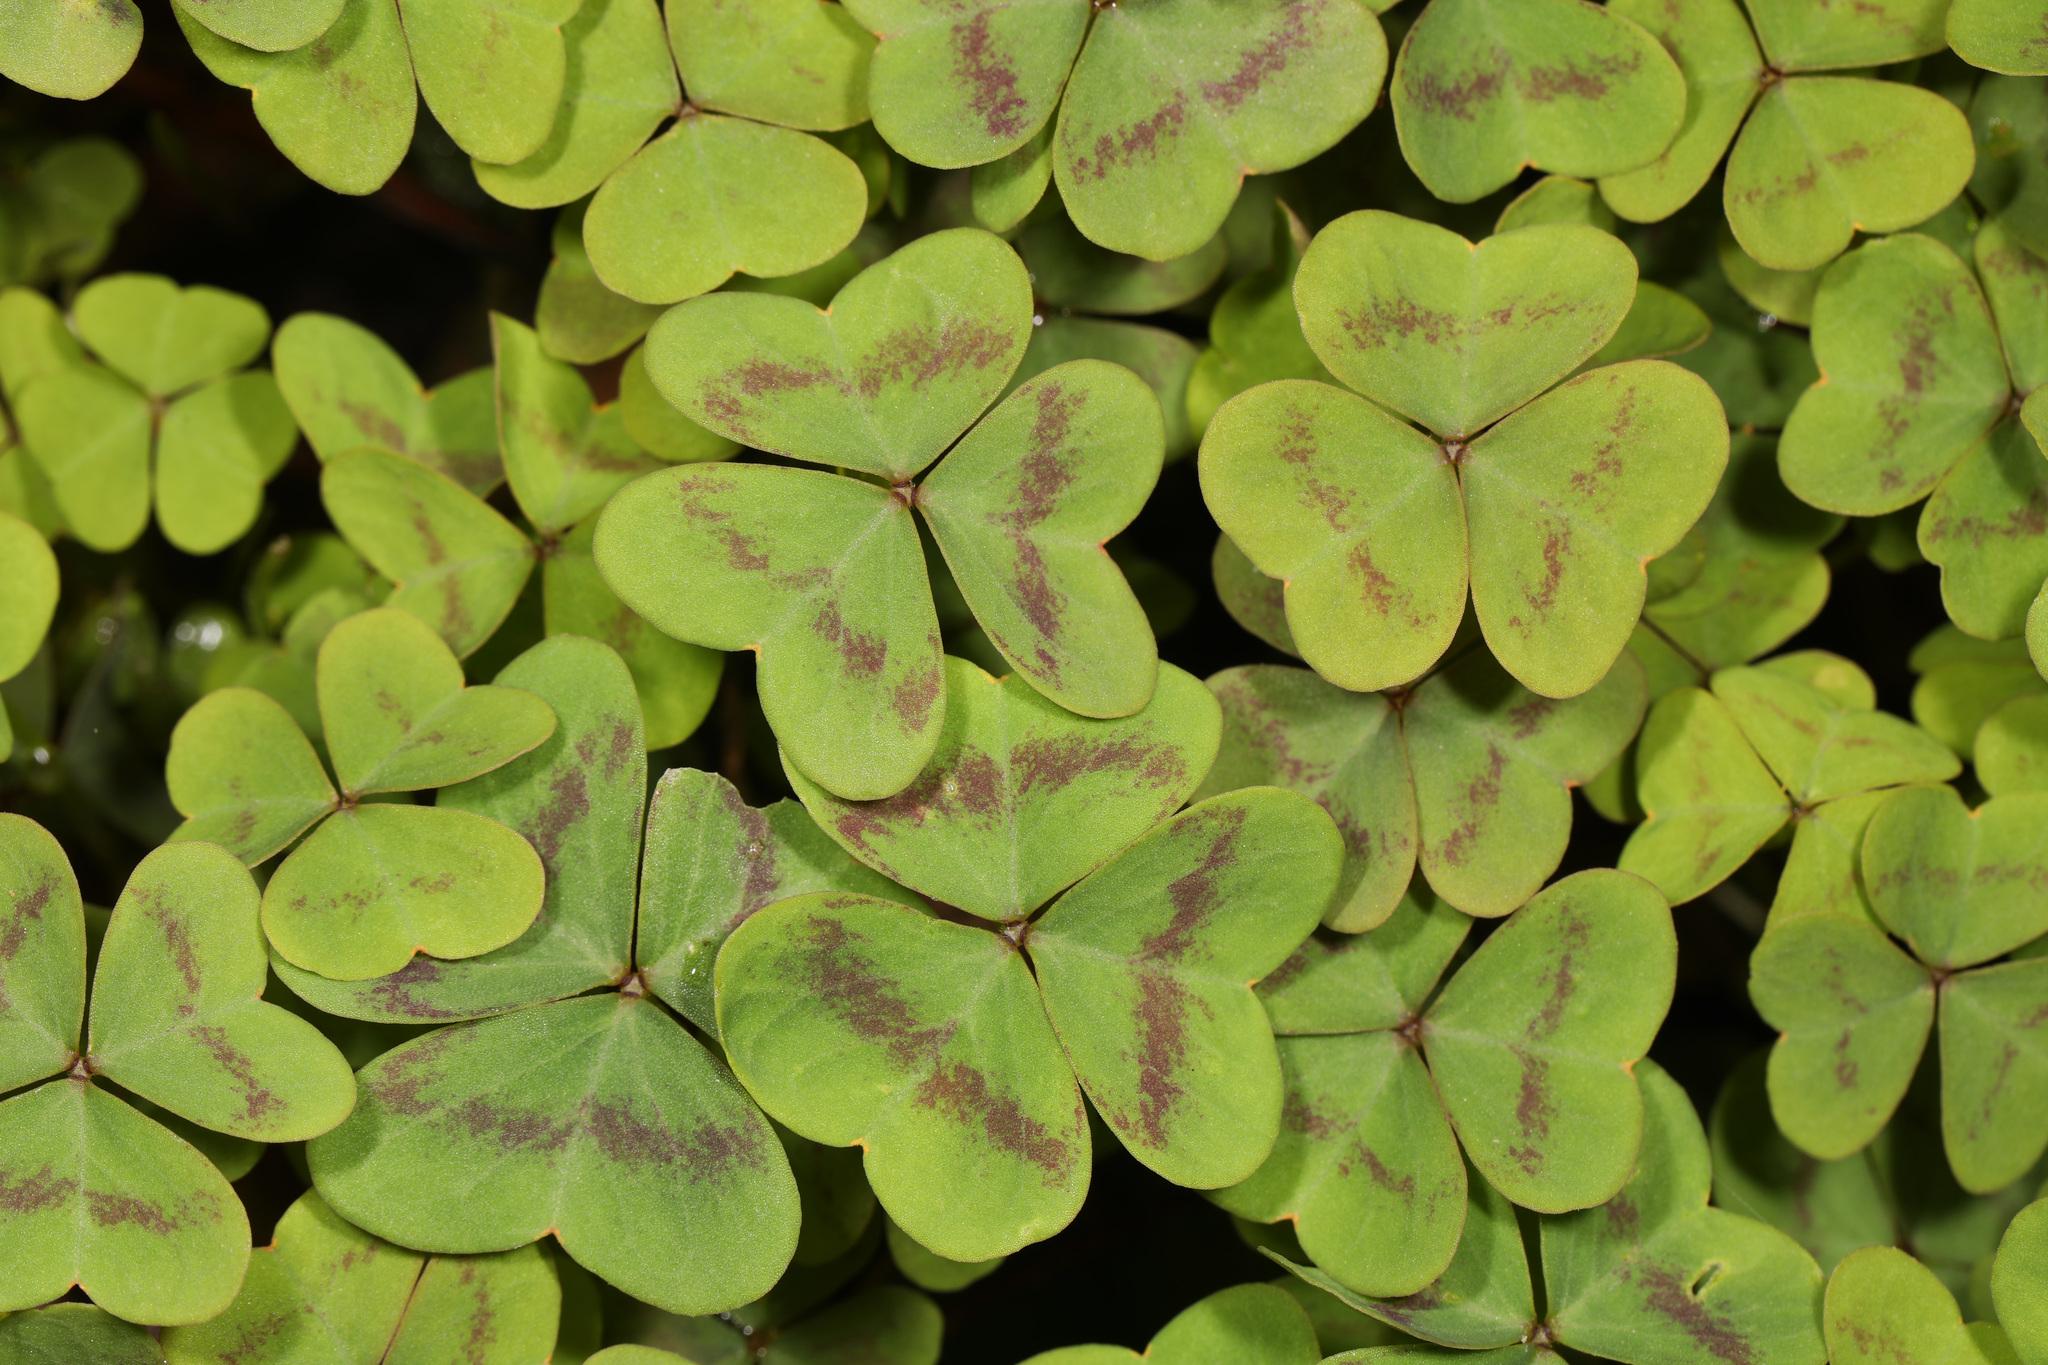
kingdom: Plantae
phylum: Tracheophyta
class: Magnoliopsida
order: Oxalidales
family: Oxalidaceae
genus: Oxalis
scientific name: Oxalis violacea
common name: Violet wood-sorrel
